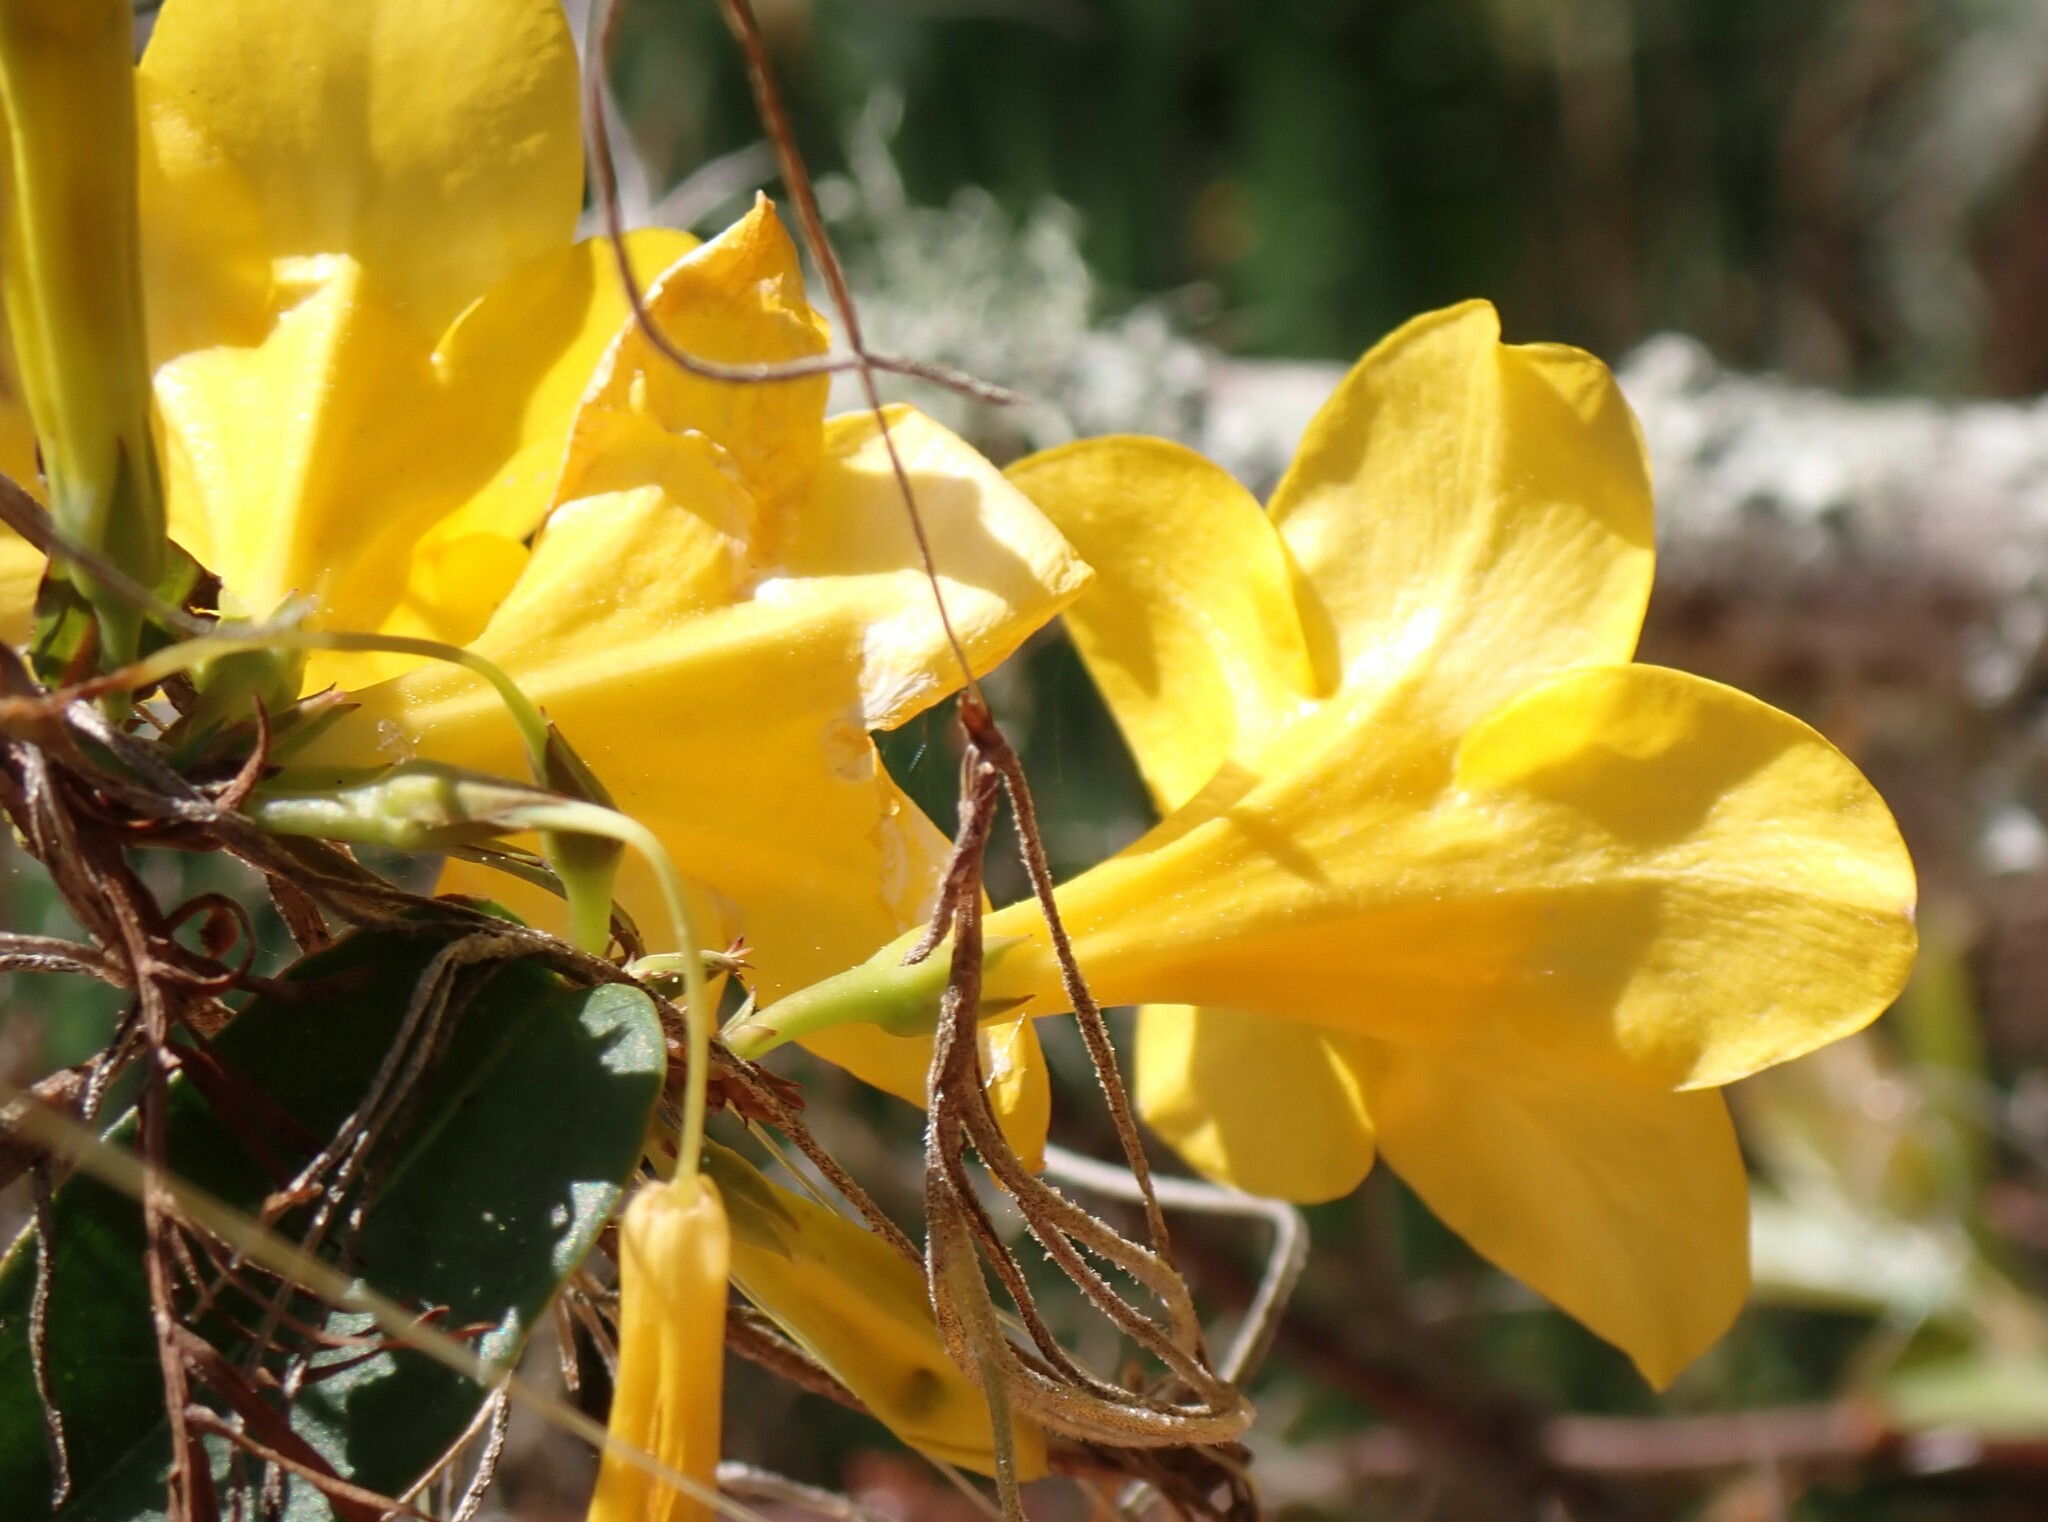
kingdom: Plantae
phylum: Tracheophyta
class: Magnoliopsida
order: Gentianales
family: Gelsemiaceae
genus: Gelsemium
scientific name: Gelsemium rankinii
